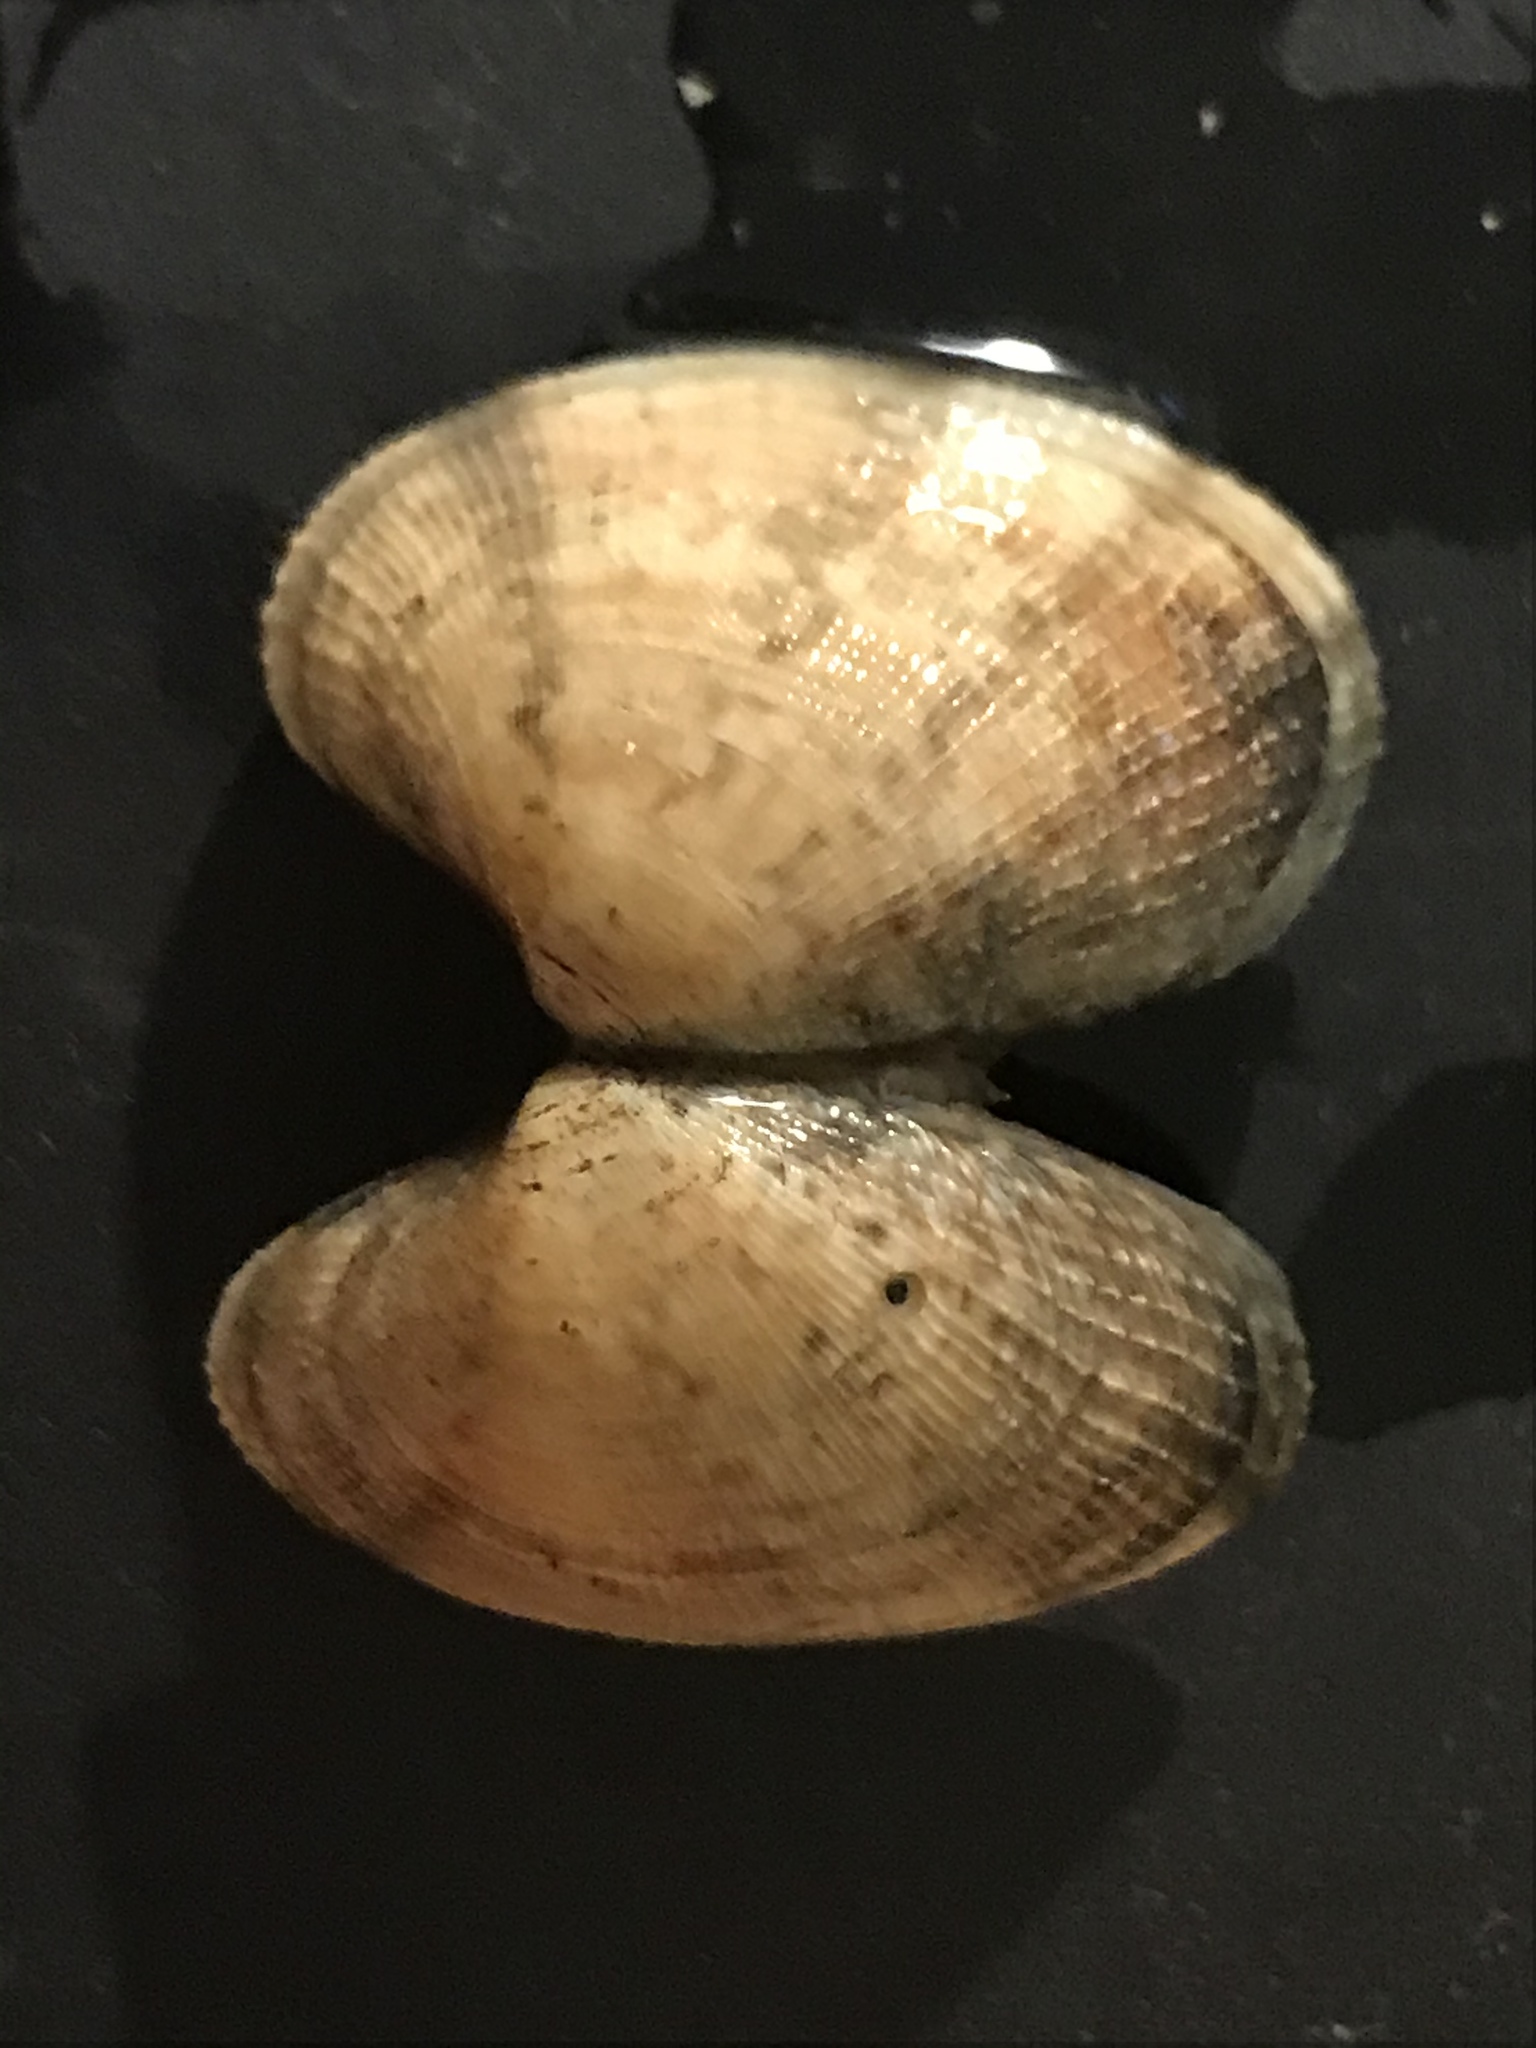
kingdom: Animalia
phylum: Mollusca
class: Bivalvia
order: Venerida
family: Veneridae
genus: Ruditapes
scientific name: Ruditapes philippinarum
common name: Manila clam
